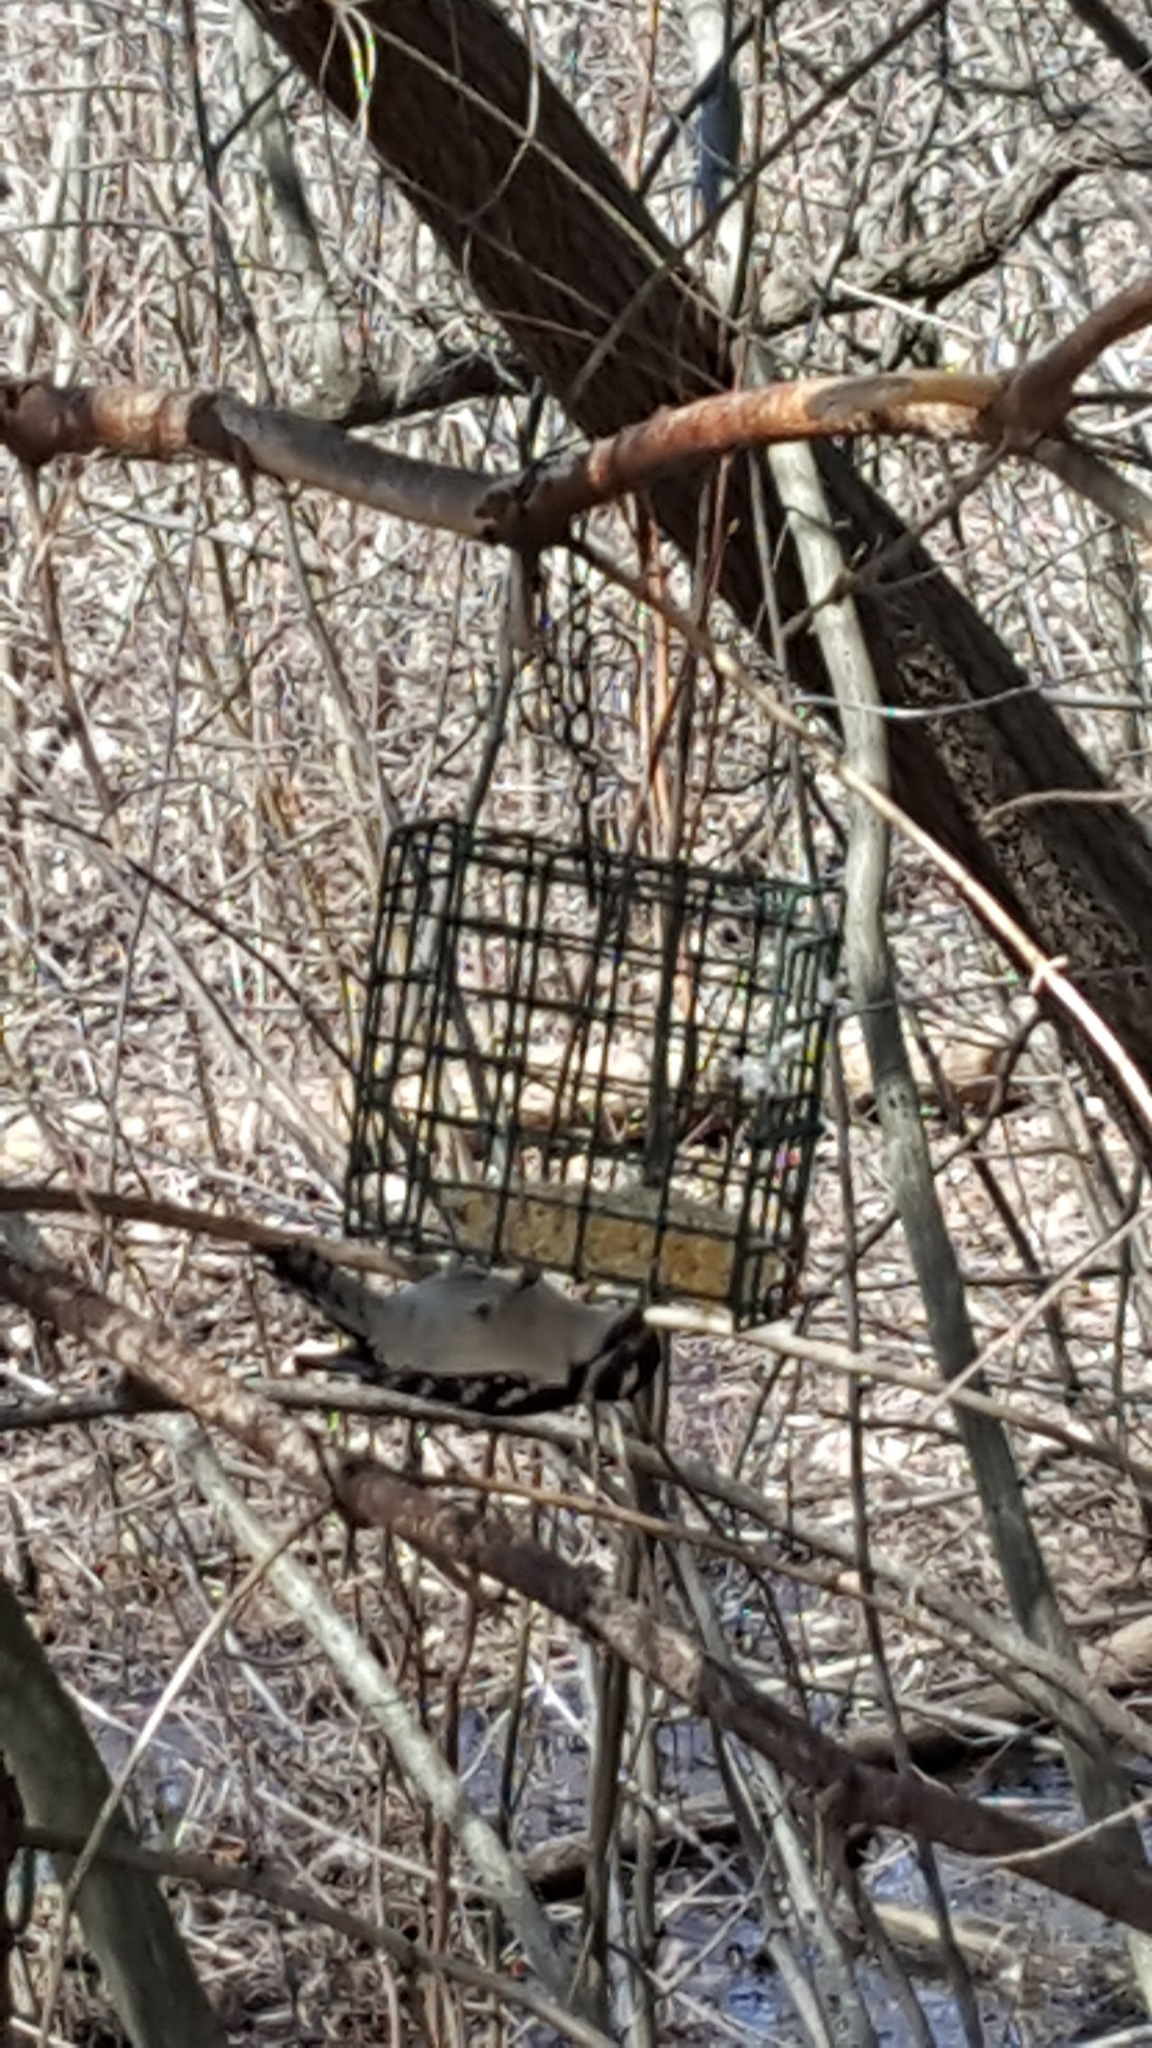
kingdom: Animalia
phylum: Chordata
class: Aves
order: Piciformes
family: Picidae
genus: Dryobates
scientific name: Dryobates pubescens
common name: Downy woodpecker
